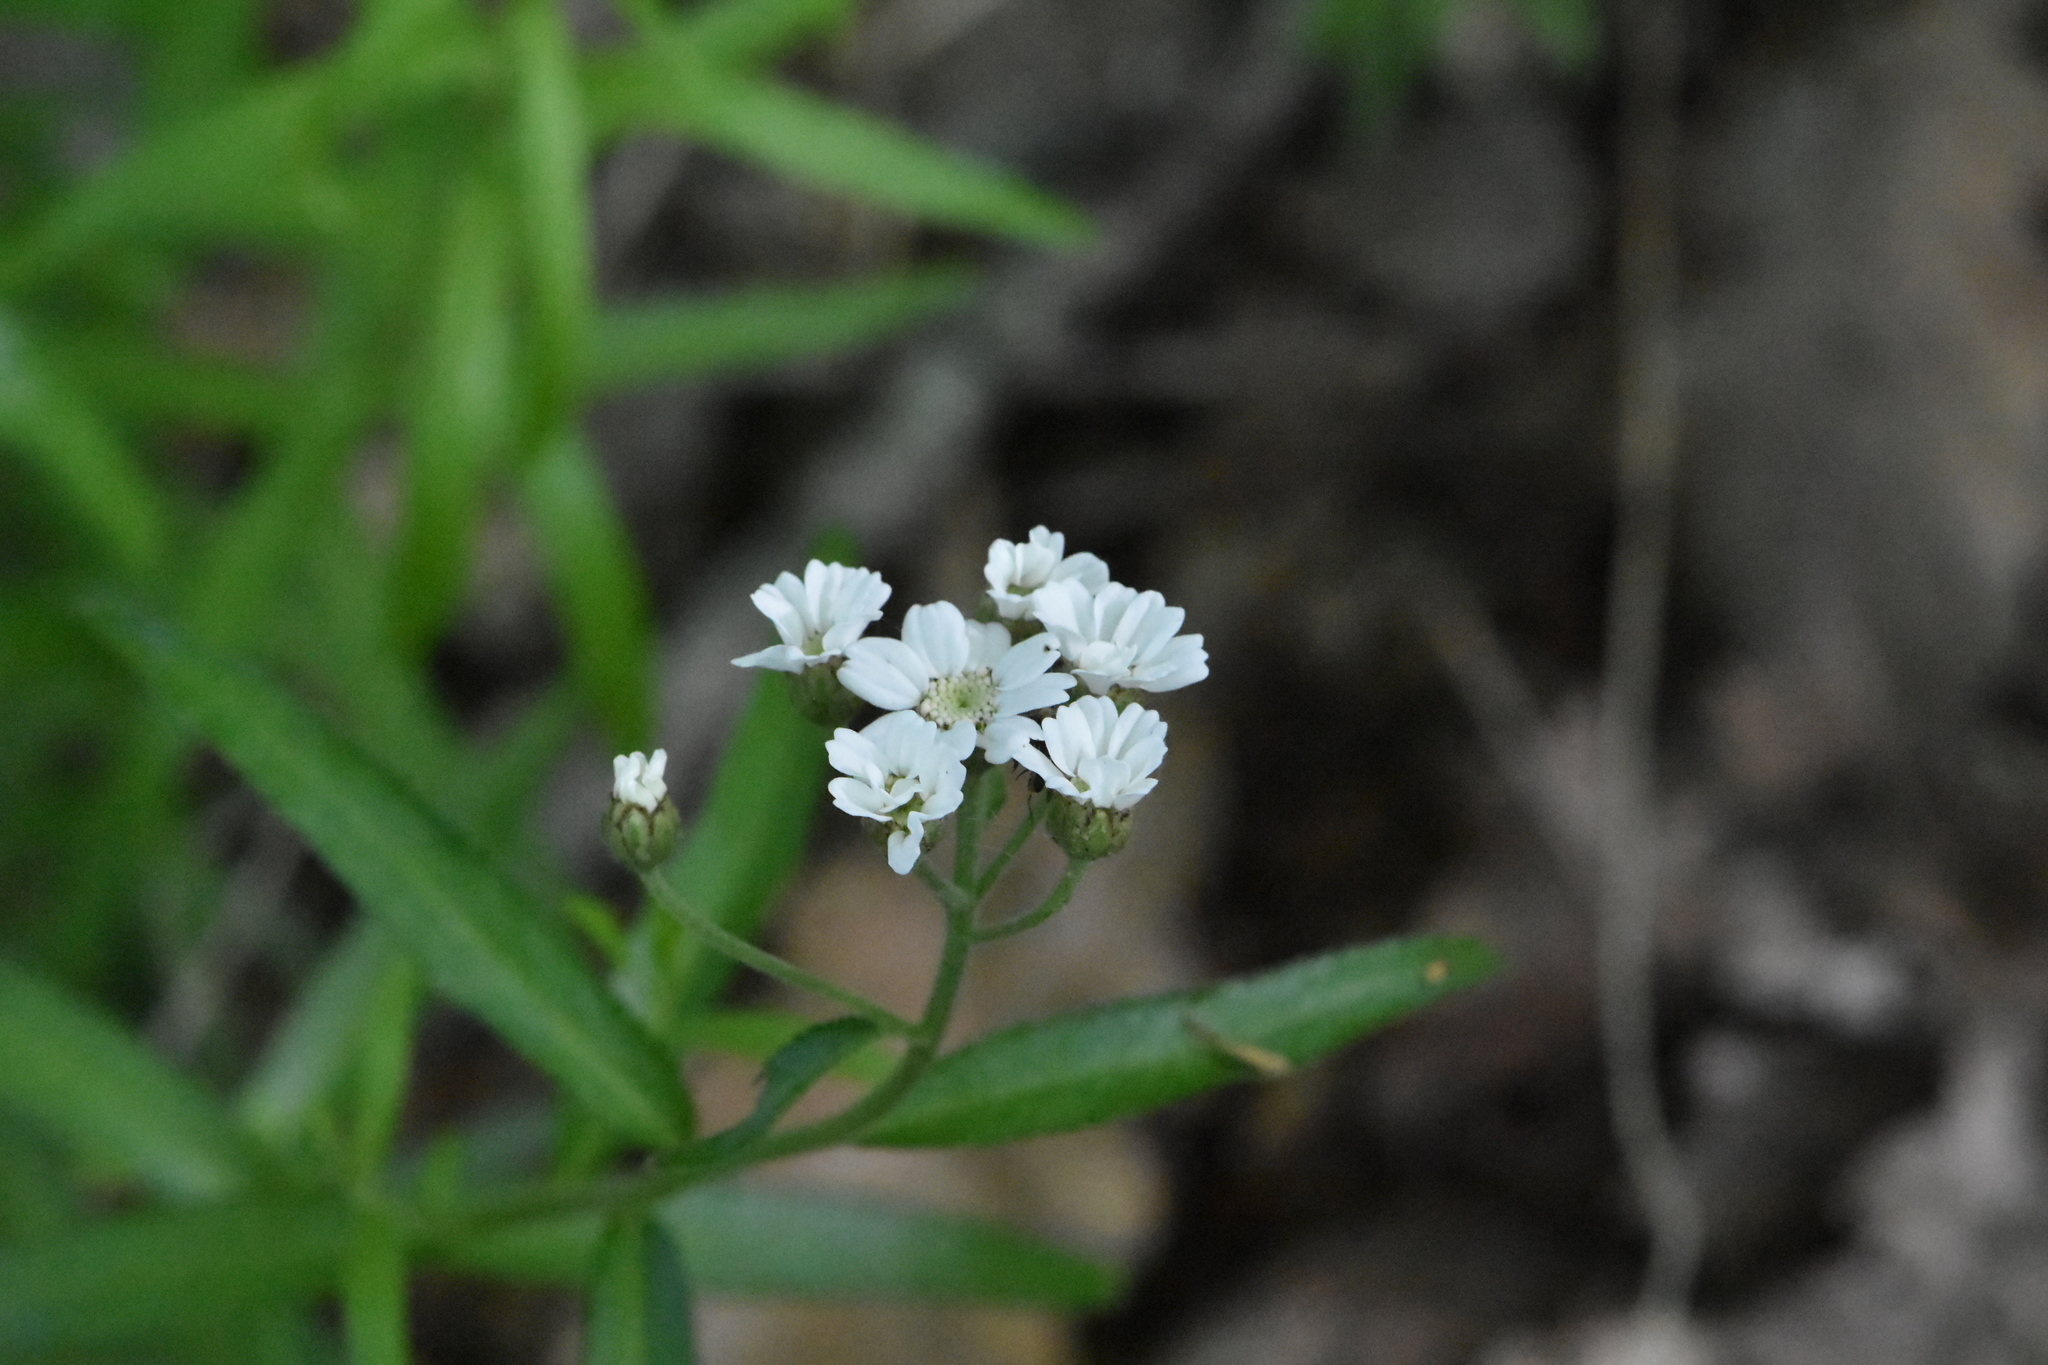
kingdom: Plantae
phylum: Tracheophyta
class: Magnoliopsida
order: Asterales
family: Asteraceae
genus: Achillea
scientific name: Achillea biserrata
